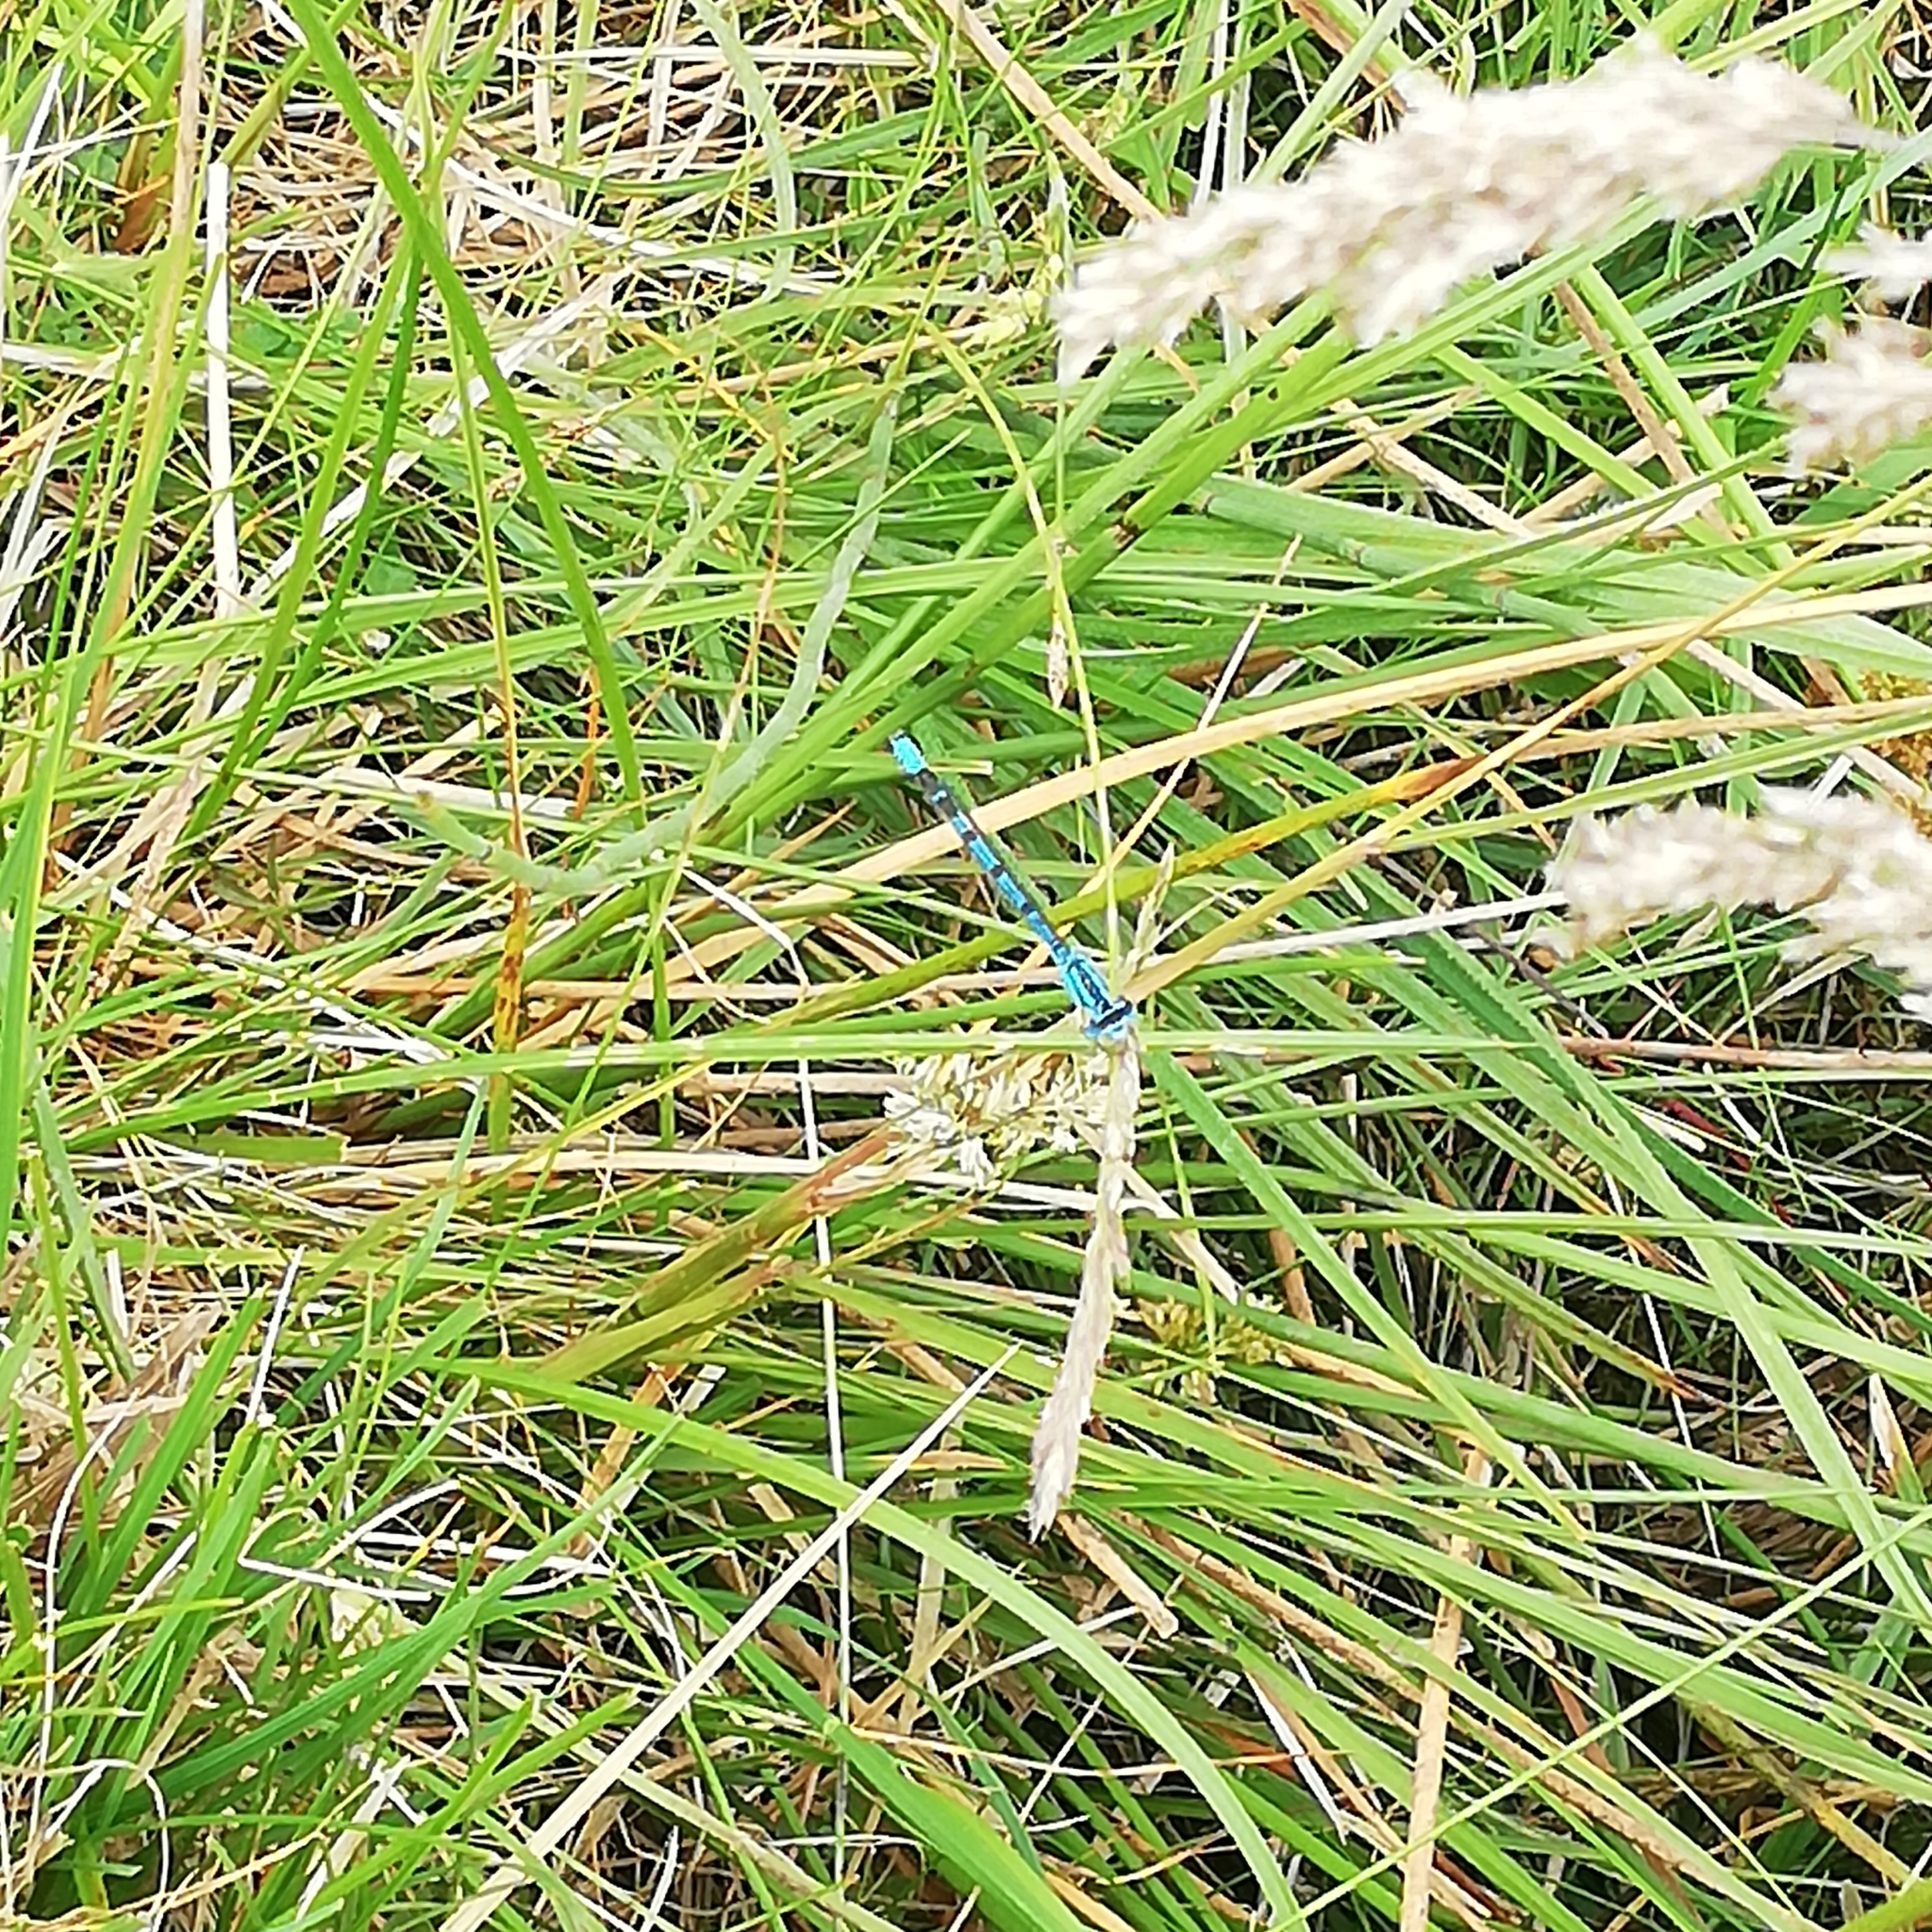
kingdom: Animalia
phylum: Arthropoda
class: Insecta
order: Odonata
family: Coenagrionidae
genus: Coenagrion
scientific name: Coenagrion puella
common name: Azure damselfly
